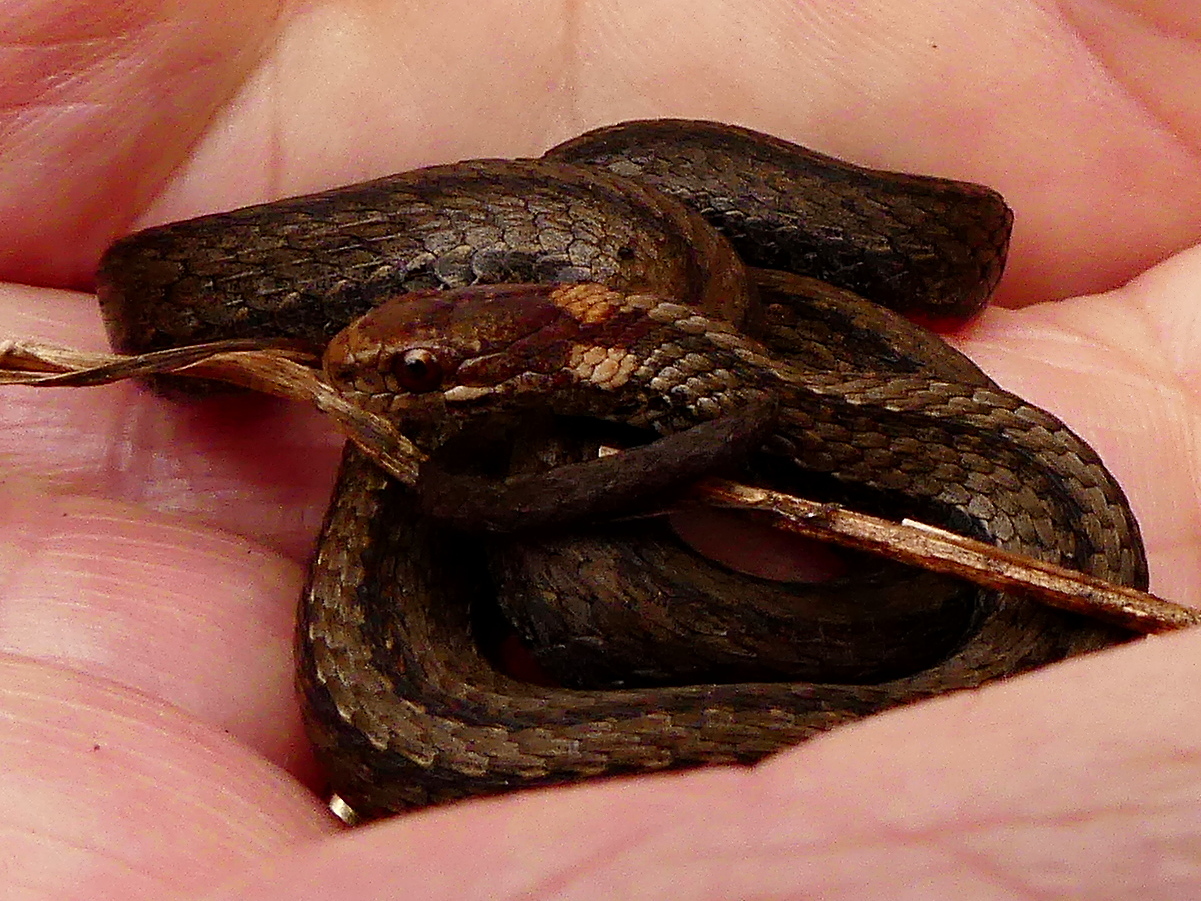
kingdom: Animalia
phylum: Chordata
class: Squamata
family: Colubridae
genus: Storeria
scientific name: Storeria occipitomaculata
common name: Redbelly snake
